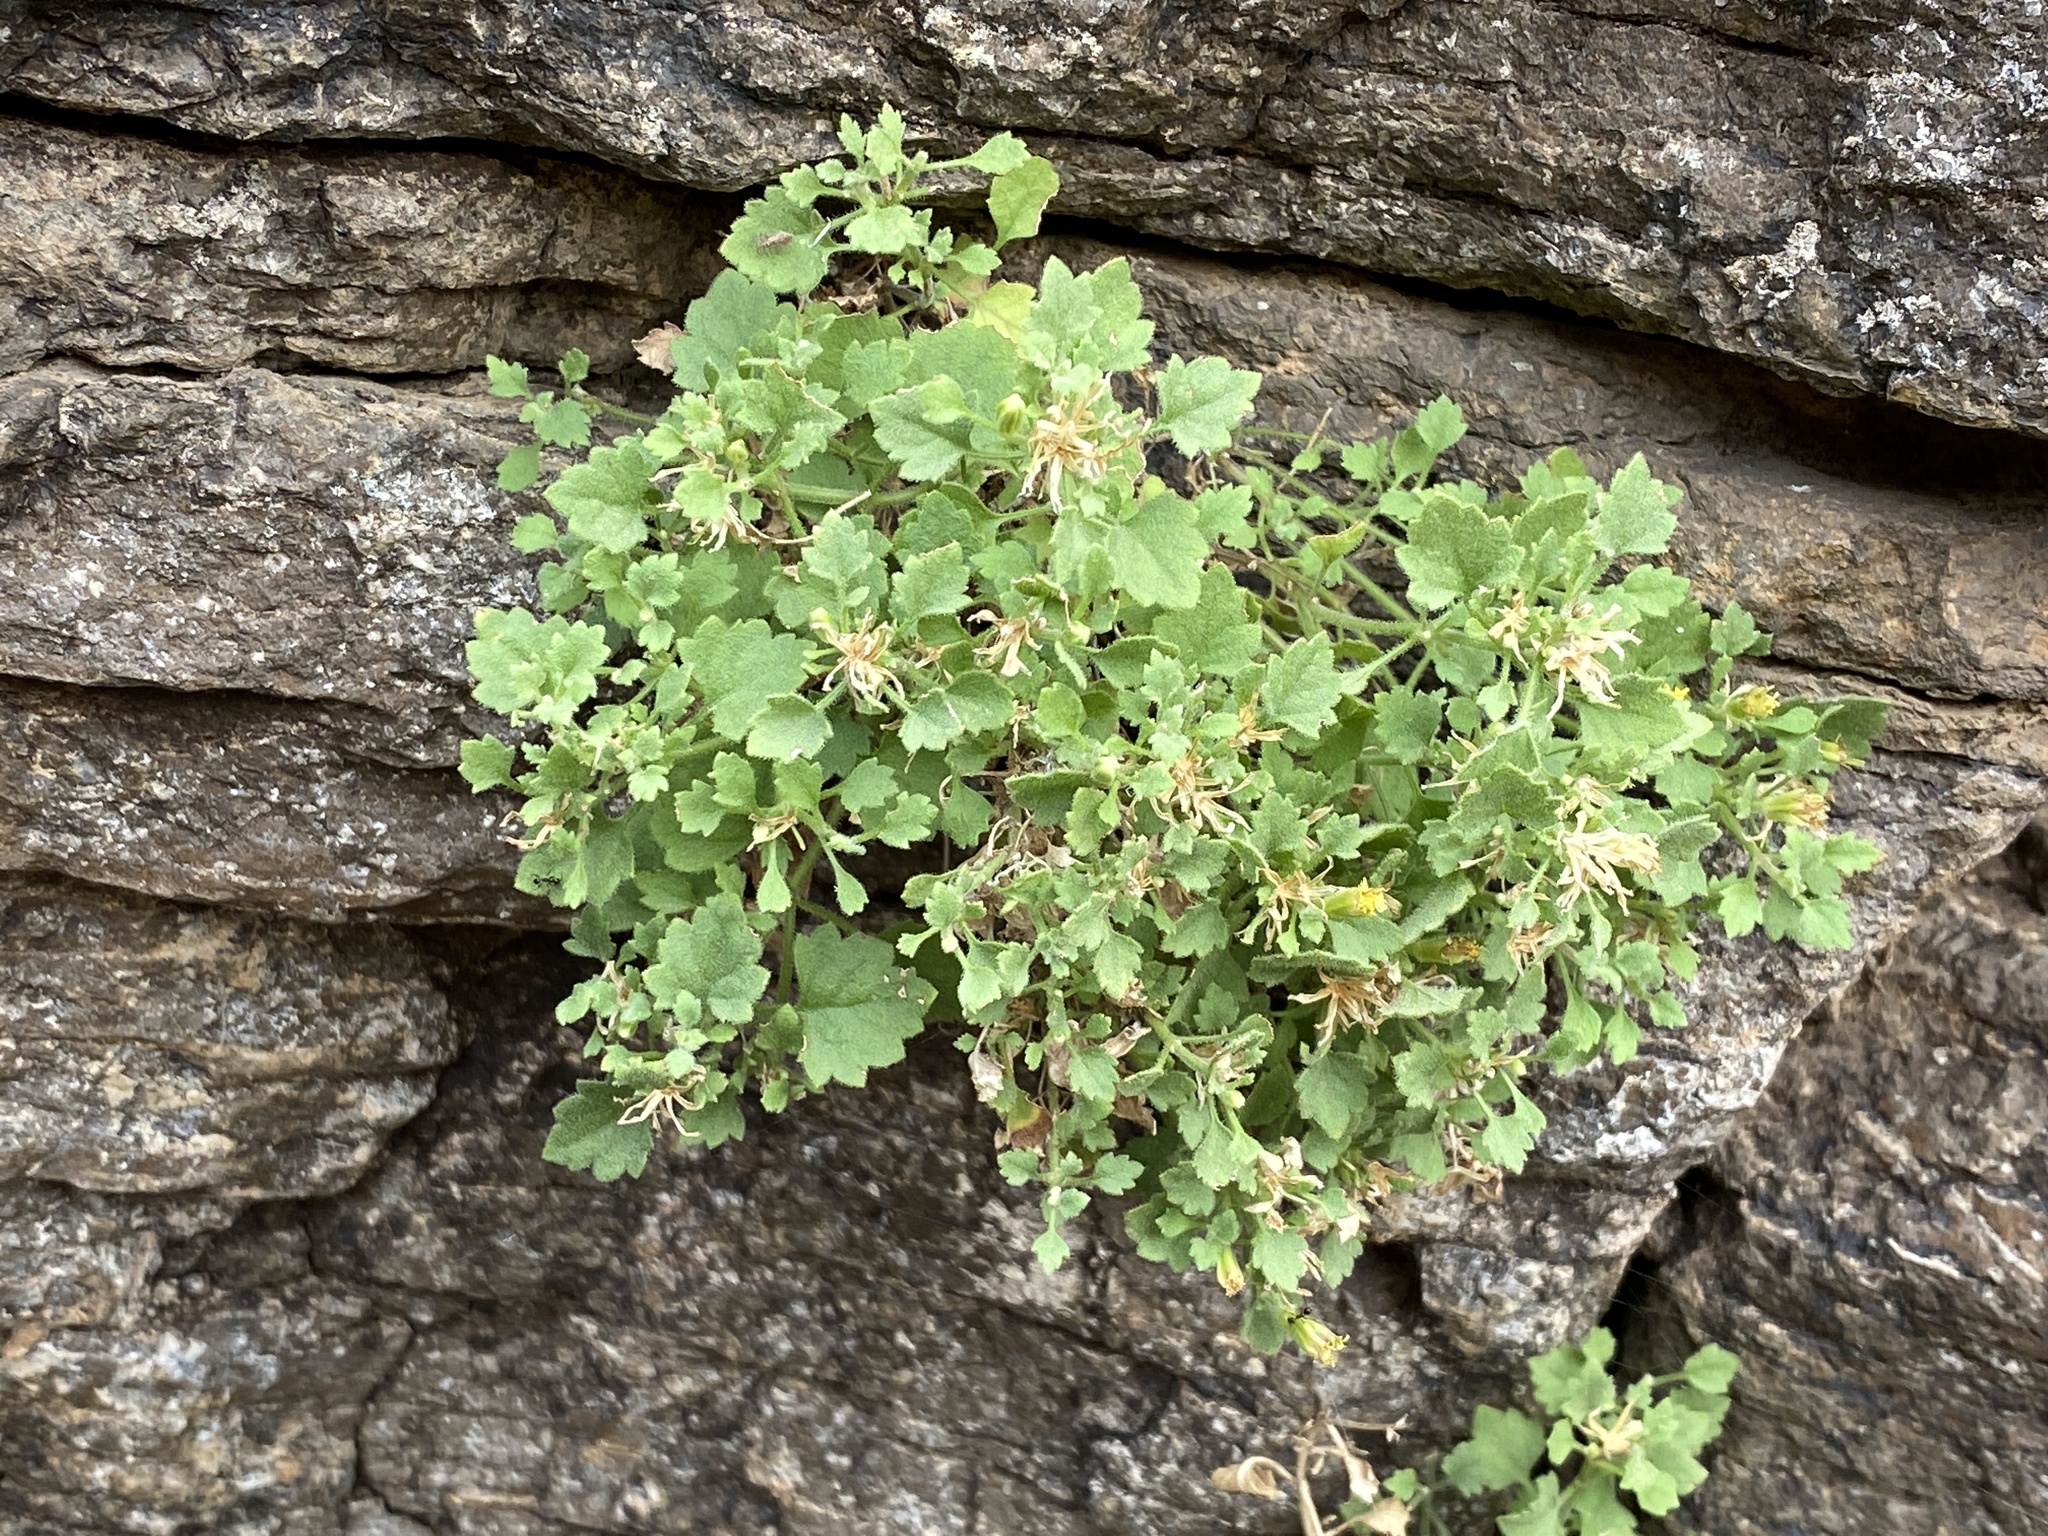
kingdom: Plantae
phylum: Tracheophyta
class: Magnoliopsida
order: Asterales
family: Asteraceae
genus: Laphamia
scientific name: Laphamia rupestris
